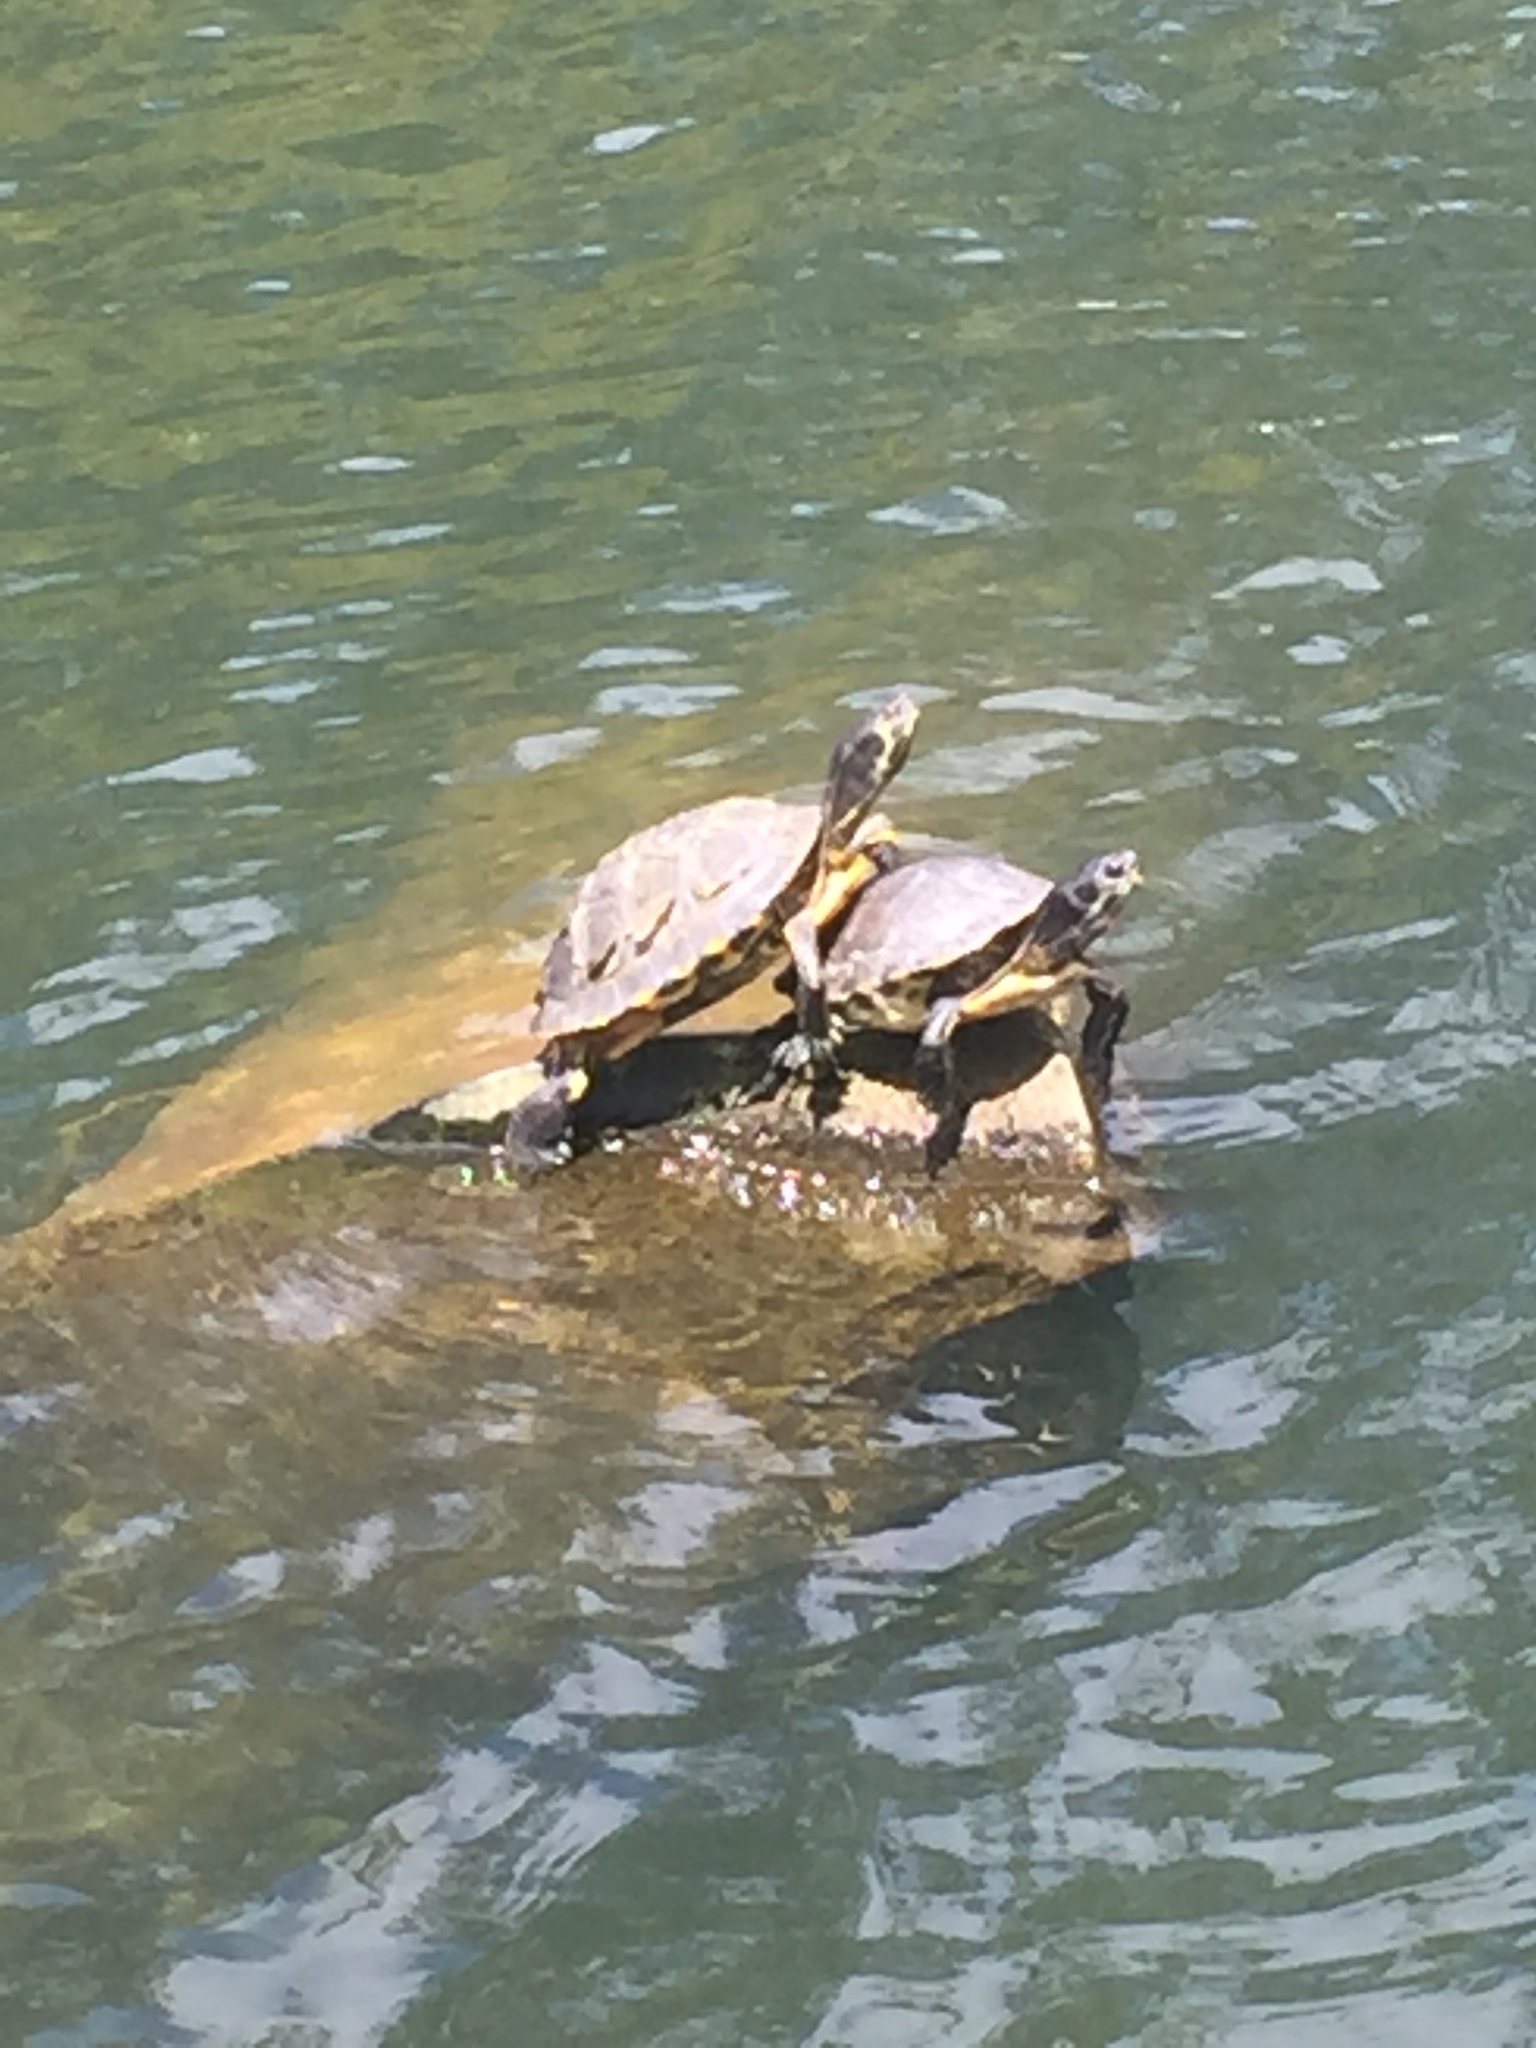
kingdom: Animalia
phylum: Chordata
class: Testudines
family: Emydidae
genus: Trachemys
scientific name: Trachemys scripta
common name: Slider
